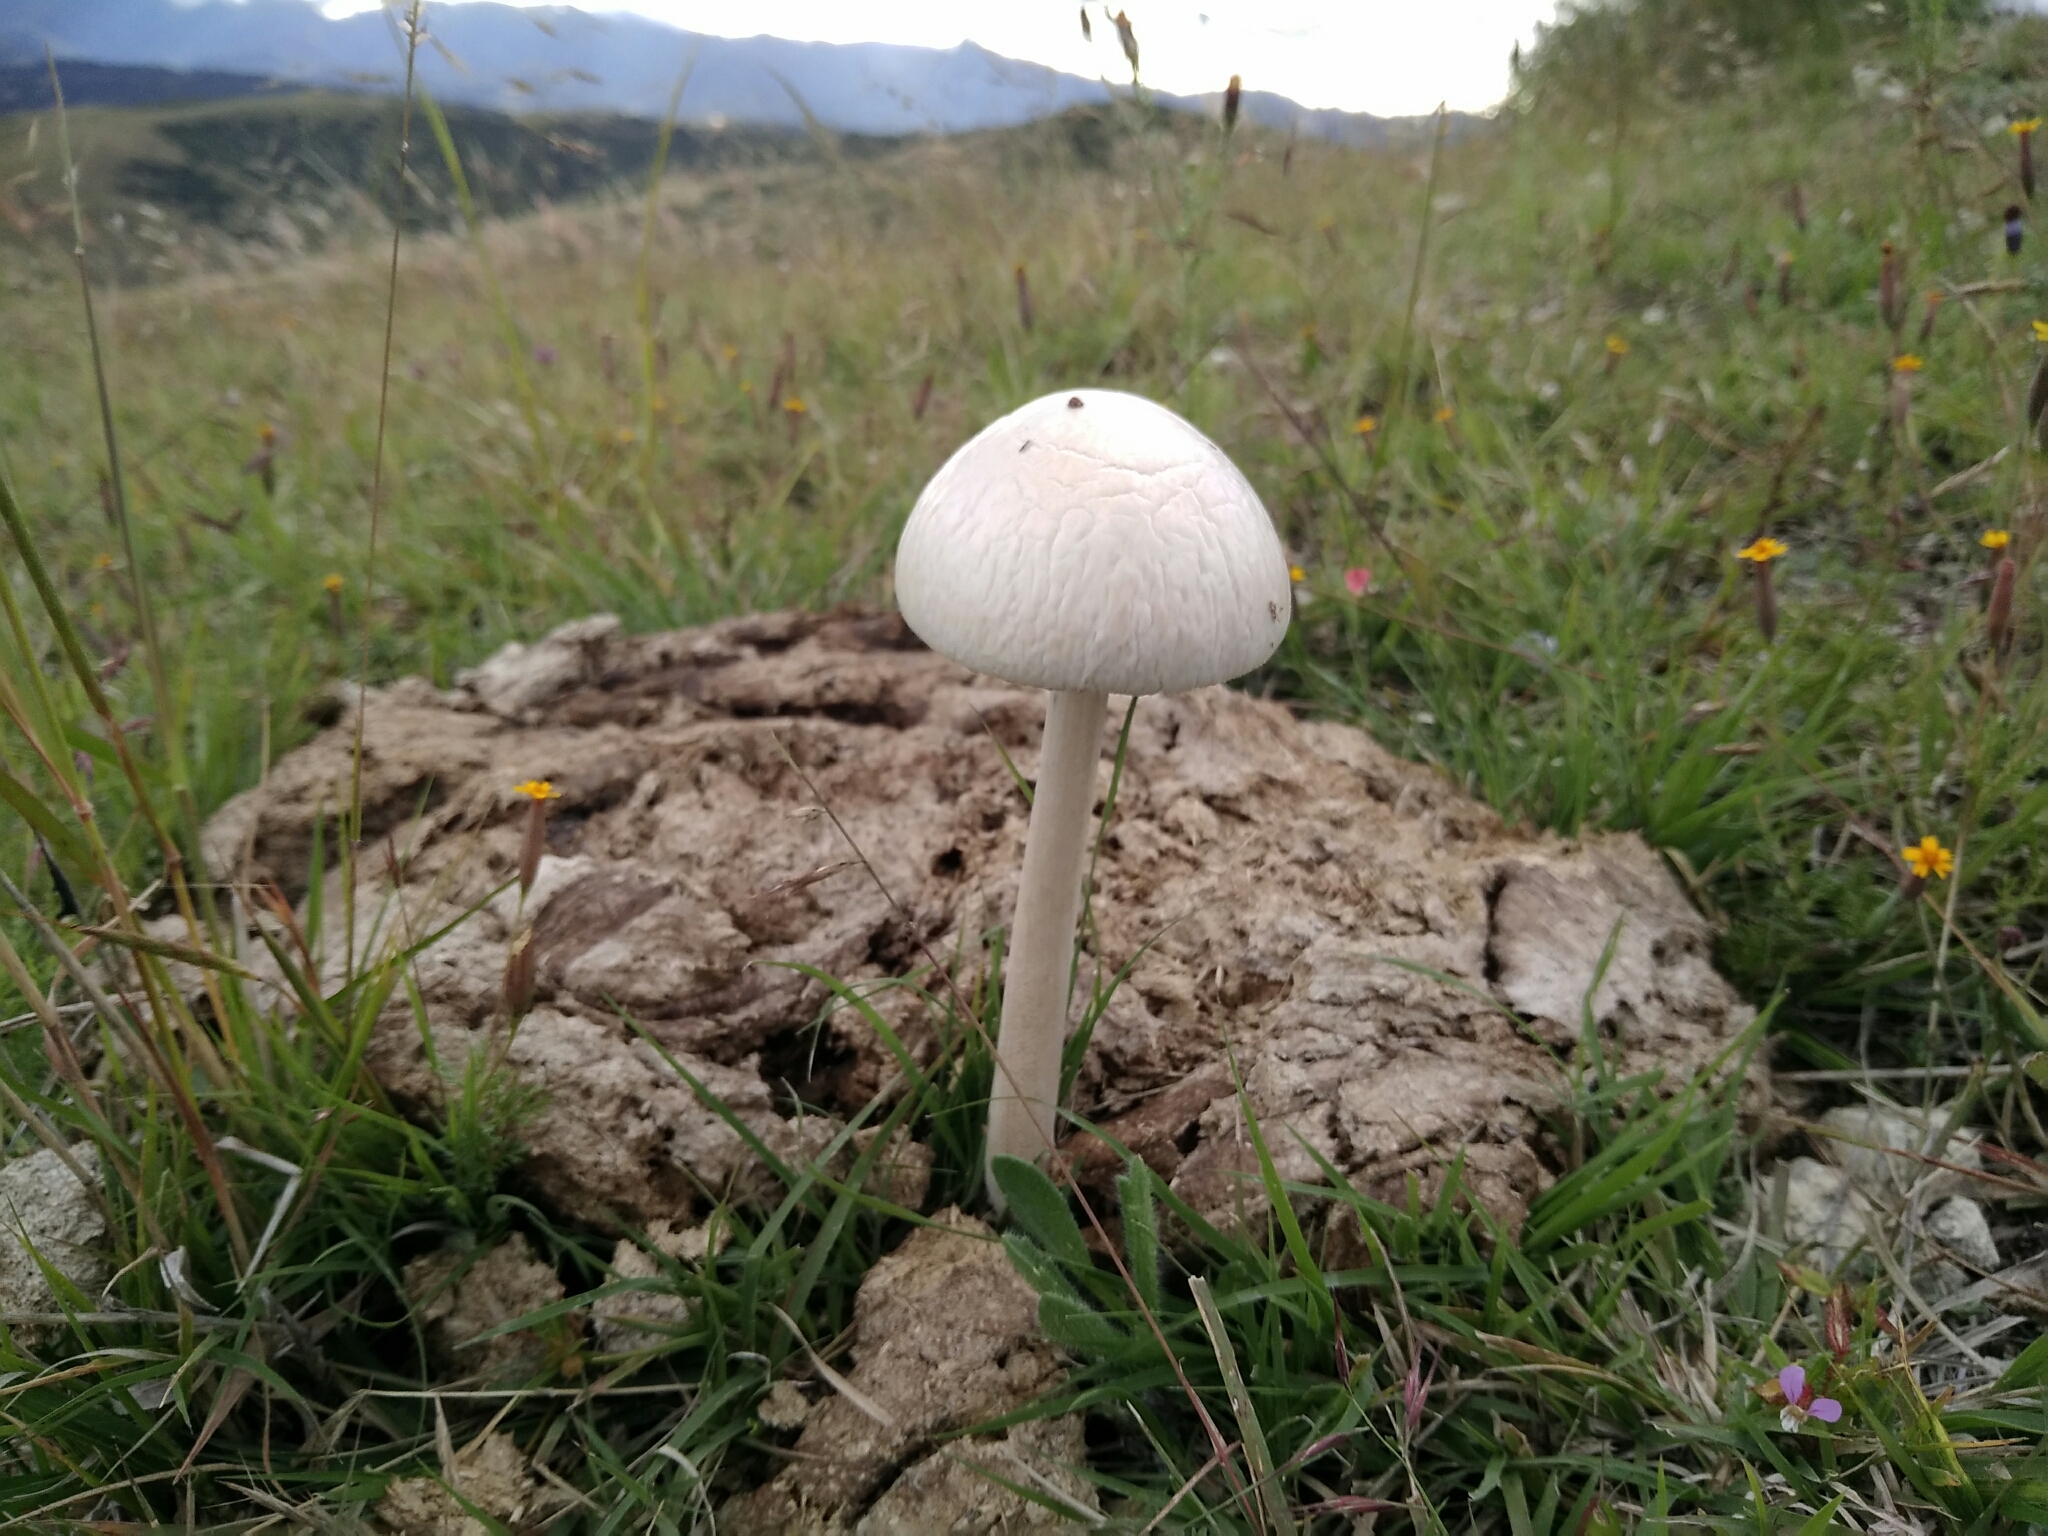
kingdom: Fungi
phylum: Basidiomycota
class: Agaricomycetes
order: Agaricales
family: Bolbitiaceae
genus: Panaeolus
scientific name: Panaeolus antillarum
